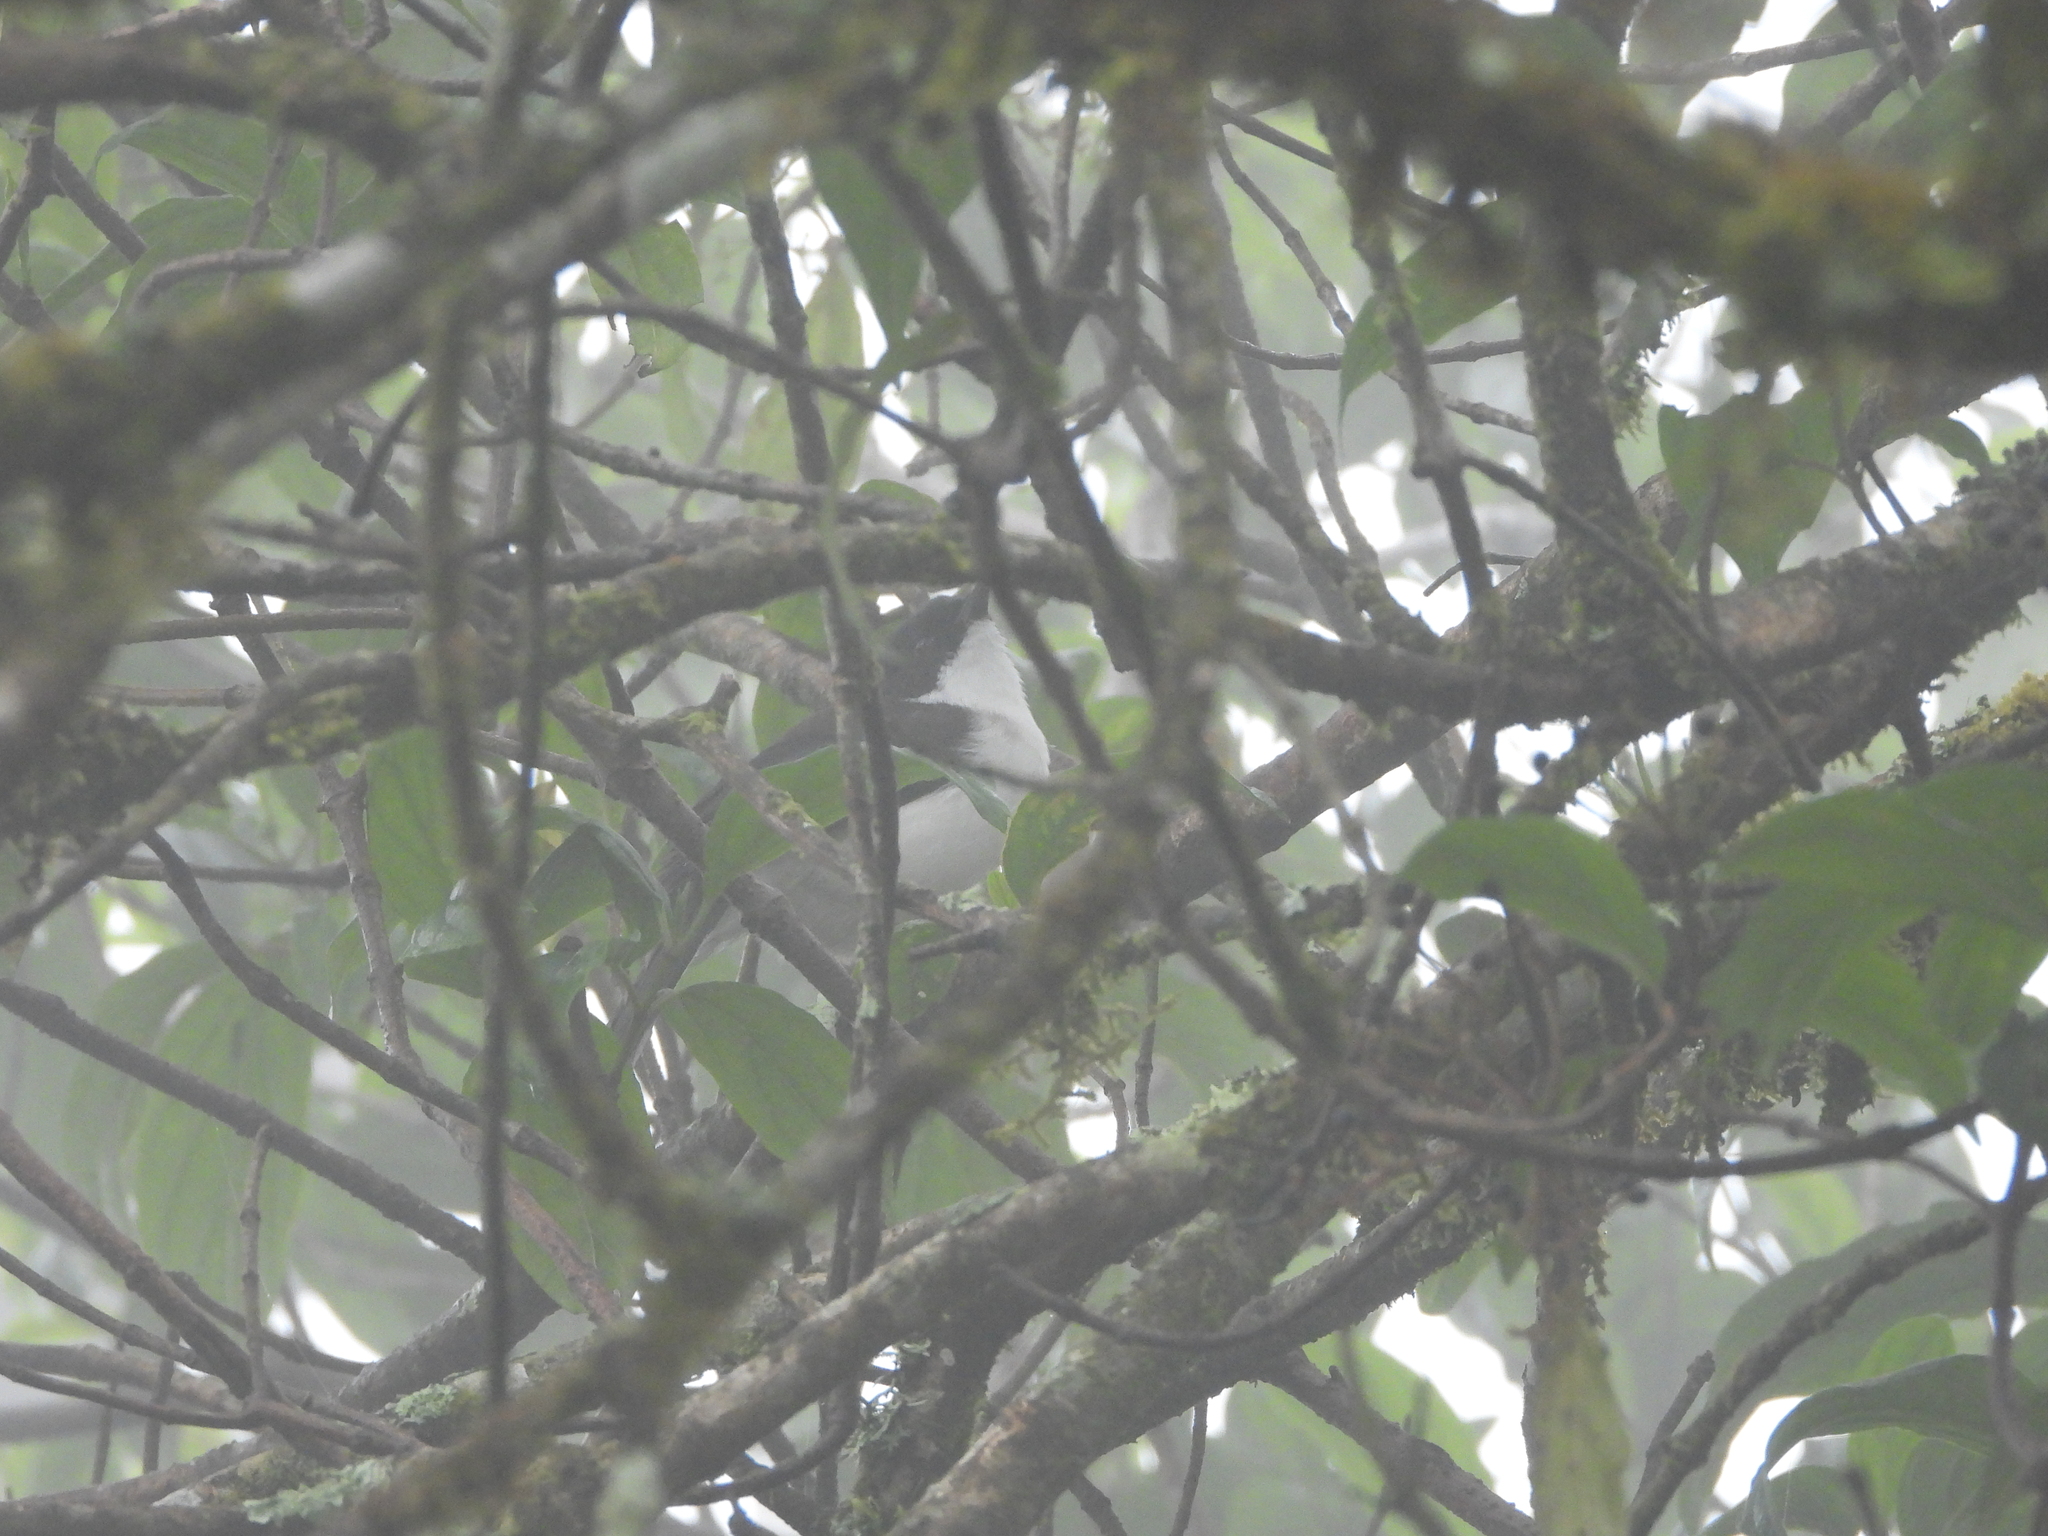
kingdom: Animalia
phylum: Chordata
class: Aves
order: Passeriformes
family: Leiothrichidae
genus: Heterophasia
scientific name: Heterophasia melanoleuca
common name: Dark-backed sibia
